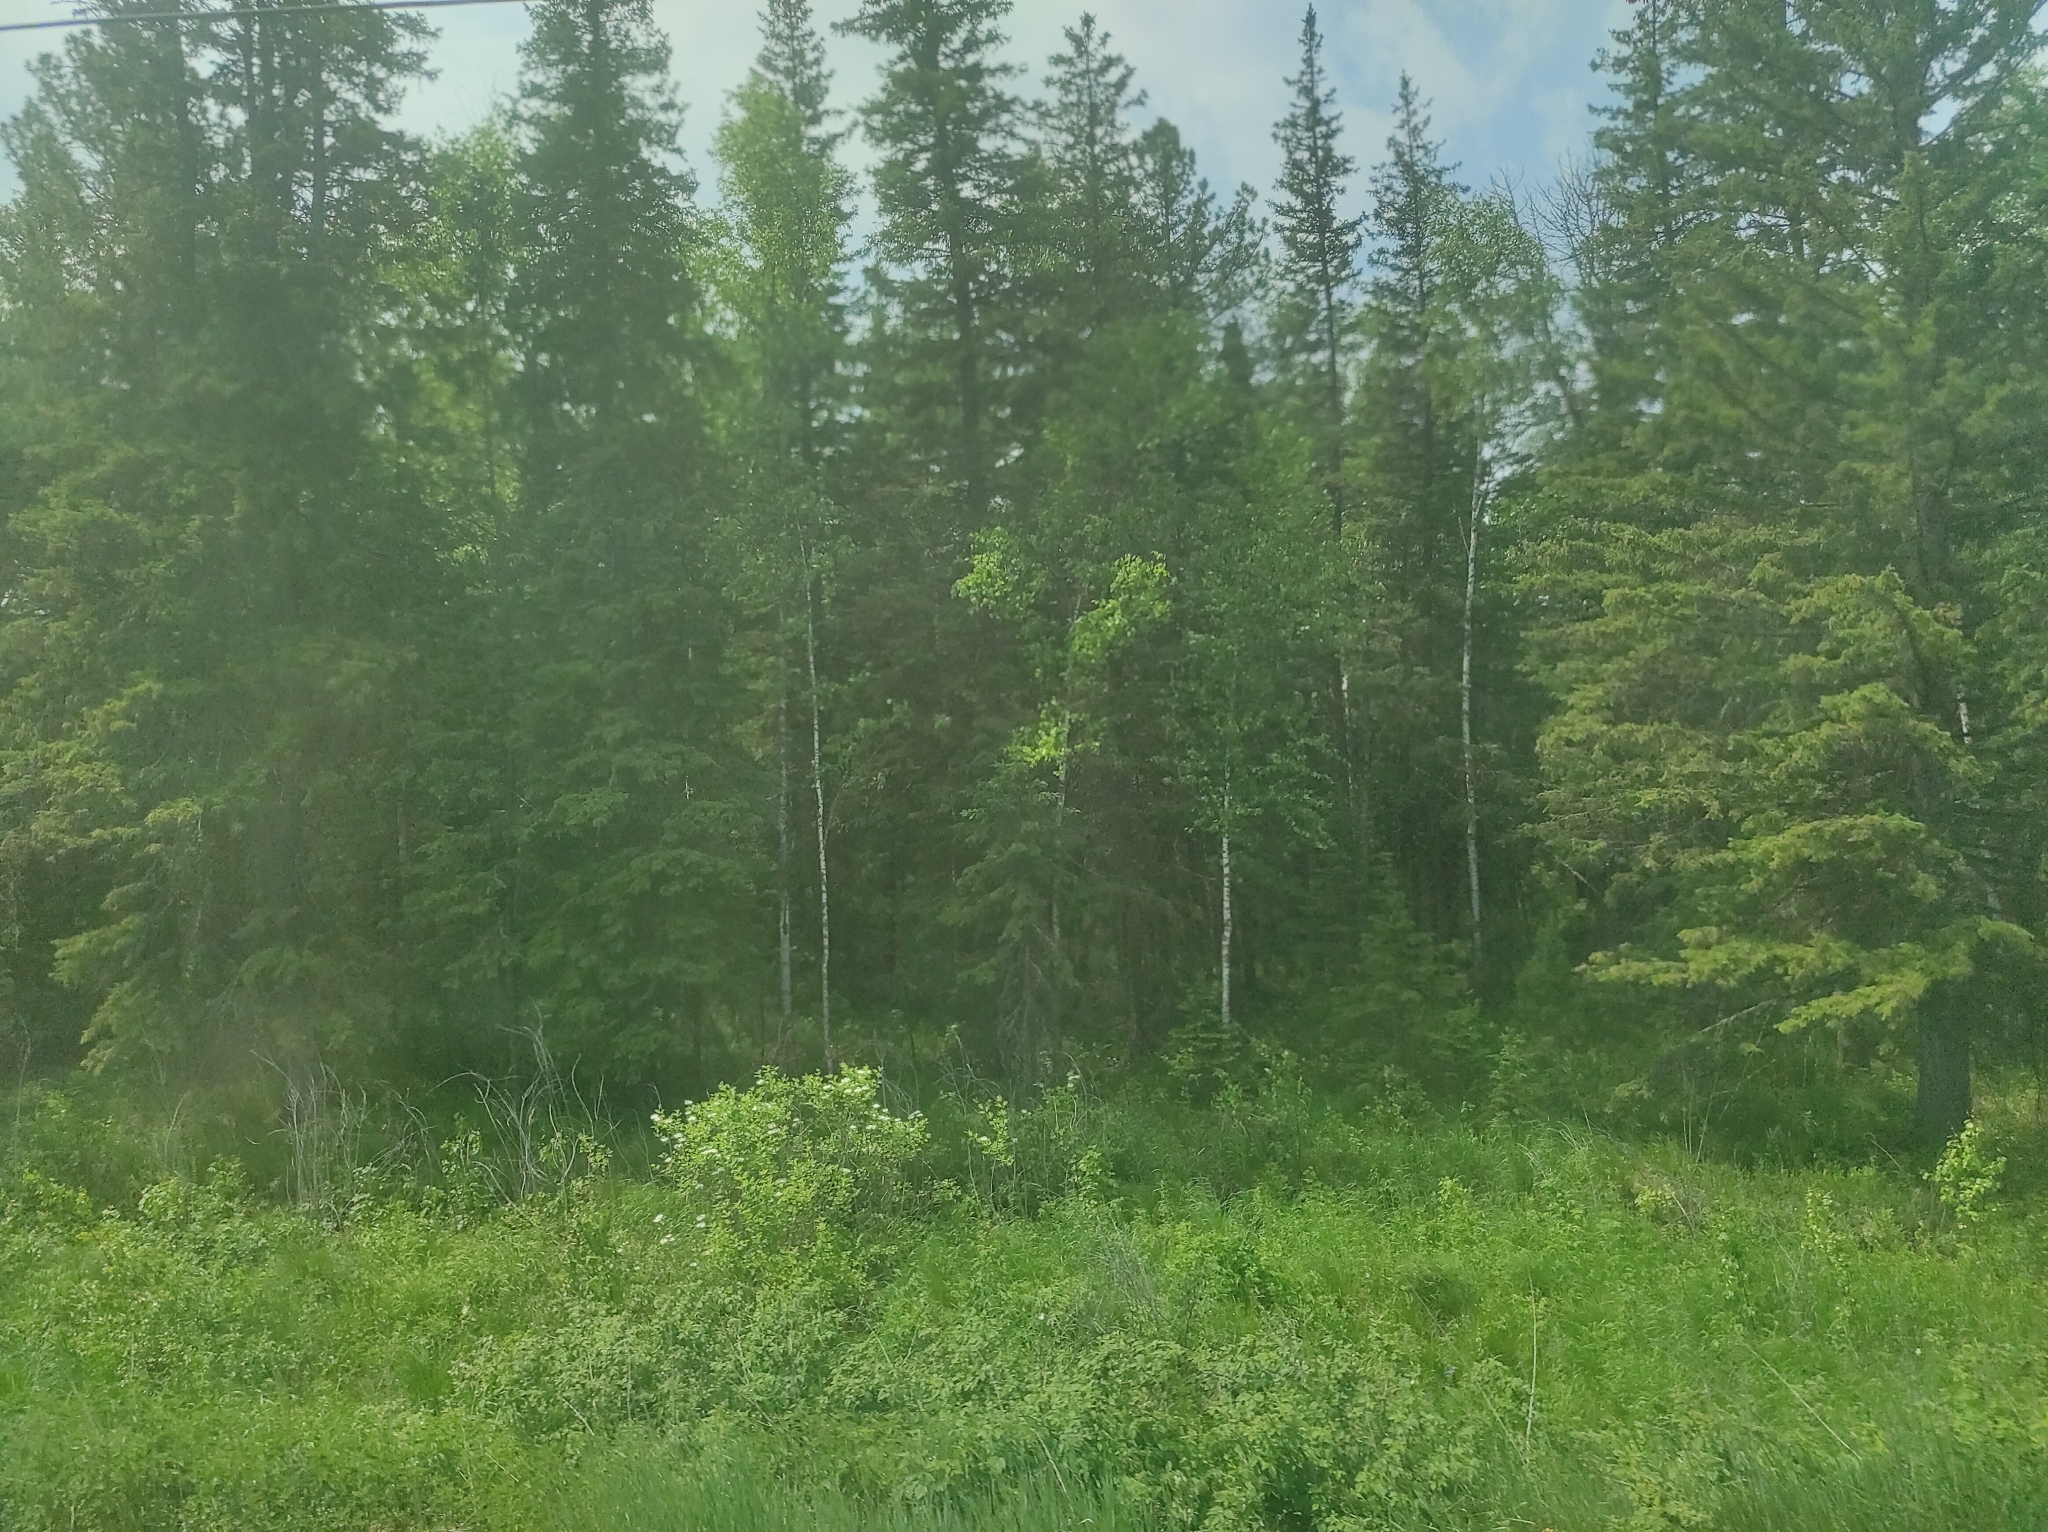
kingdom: Plantae
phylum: Tracheophyta
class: Pinopsida
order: Pinales
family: Pinaceae
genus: Picea
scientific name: Picea obovata
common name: Siberian spruce
